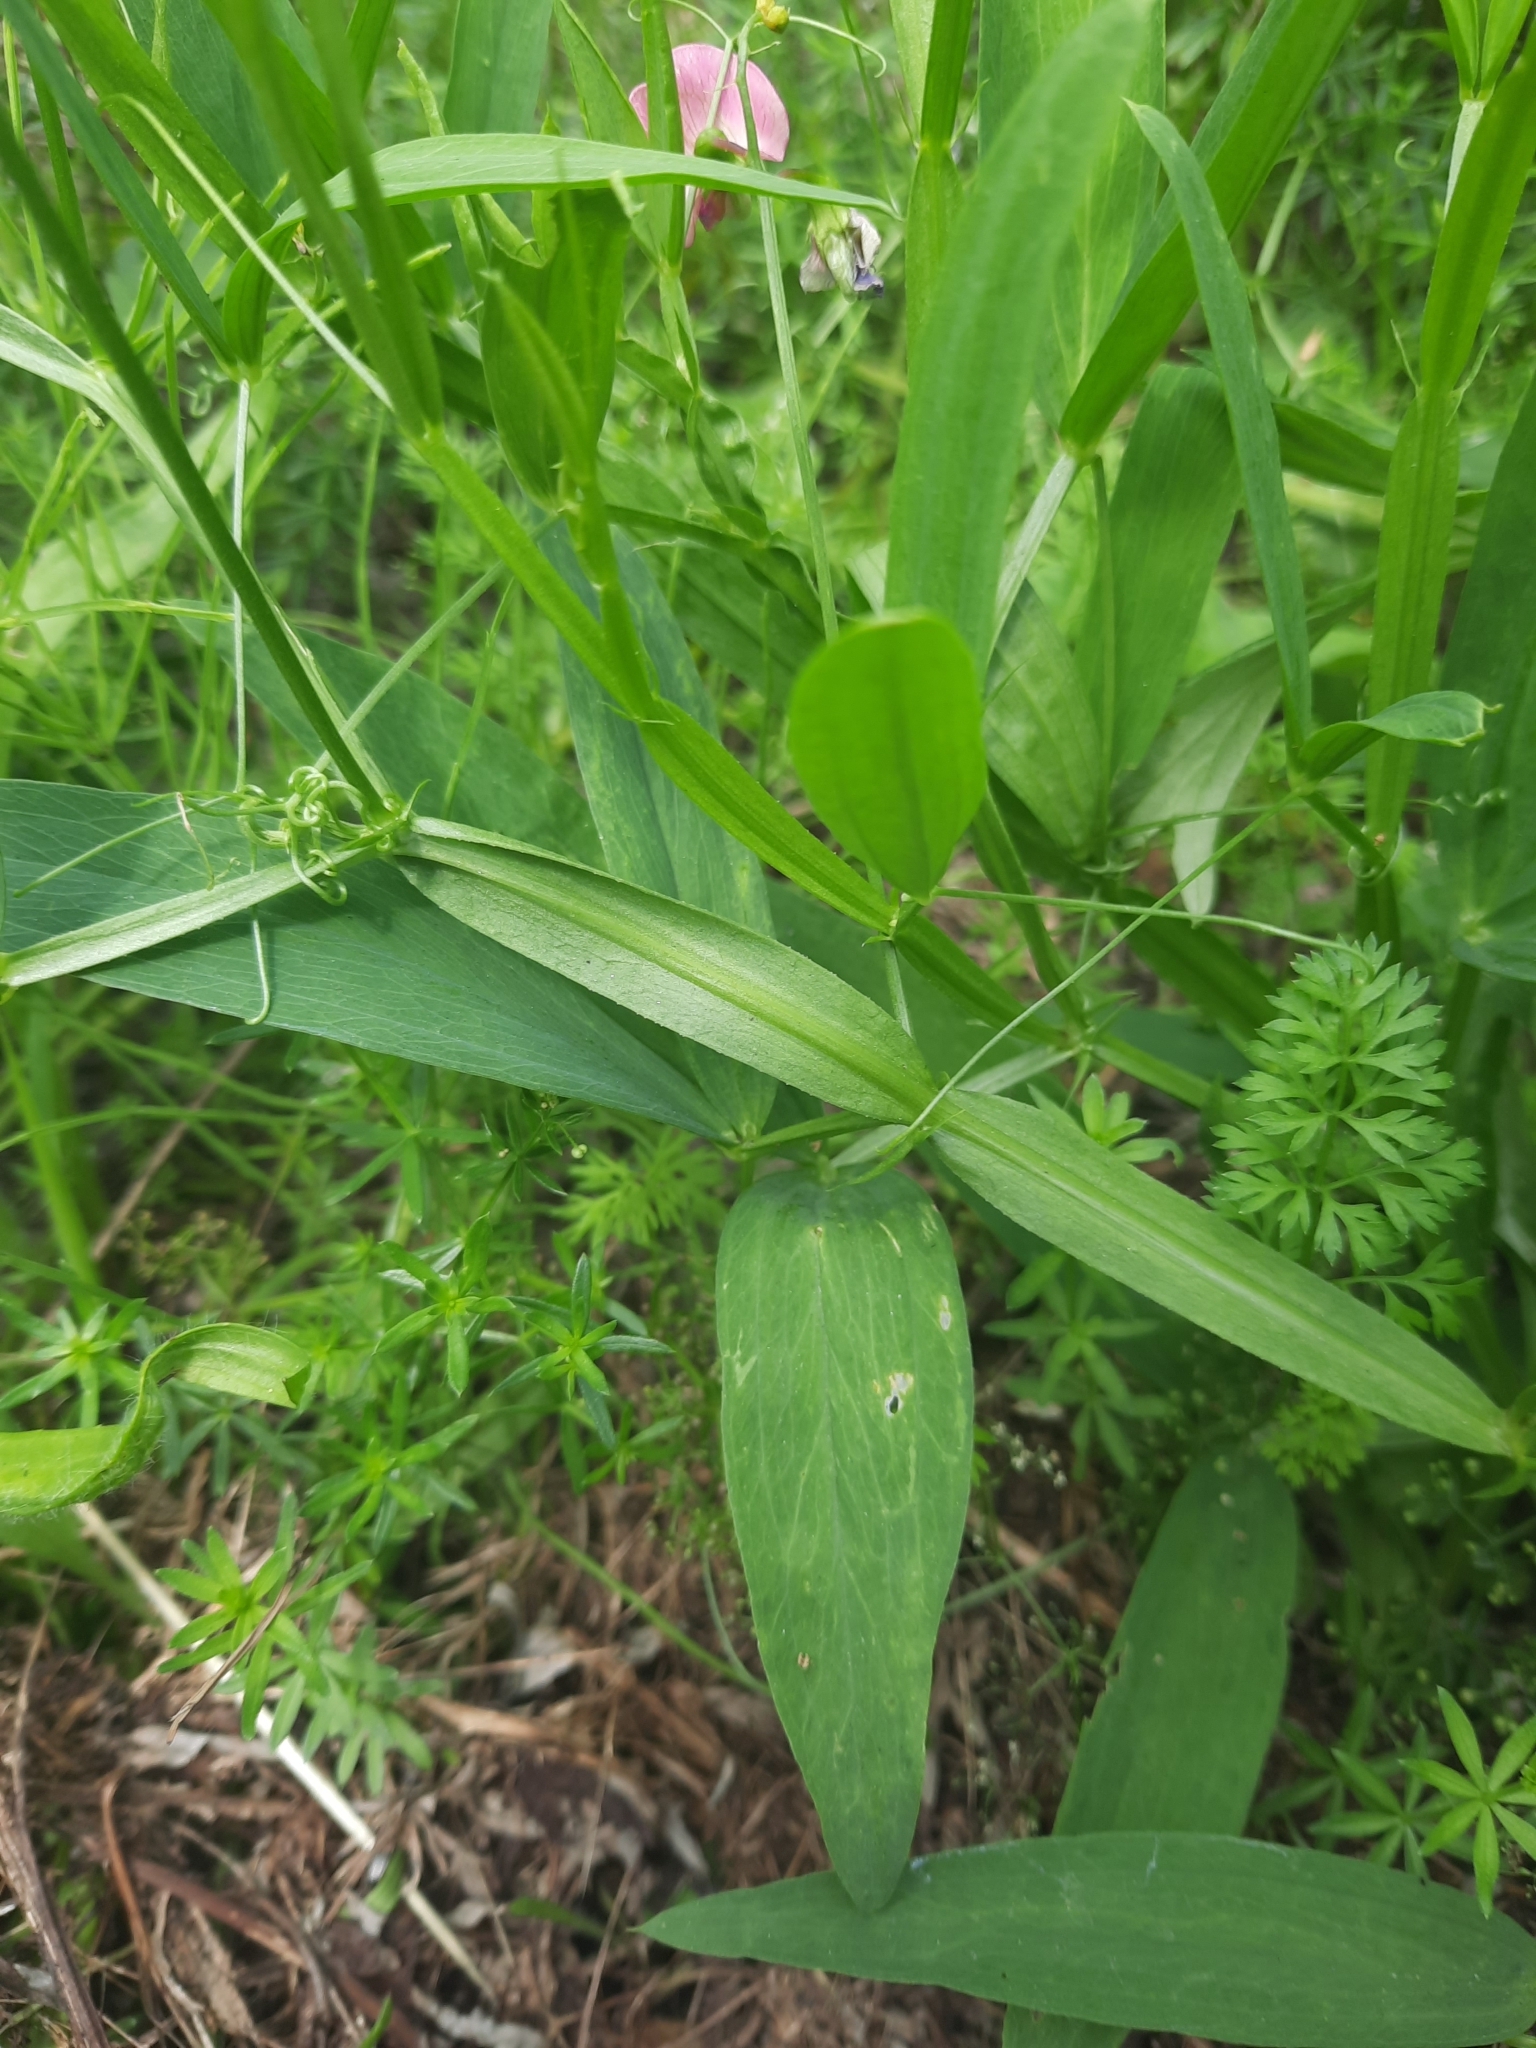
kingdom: Plantae
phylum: Tracheophyta
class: Magnoliopsida
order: Fabales
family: Fabaceae
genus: Lathyrus
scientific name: Lathyrus sylvestris
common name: Flat pea
